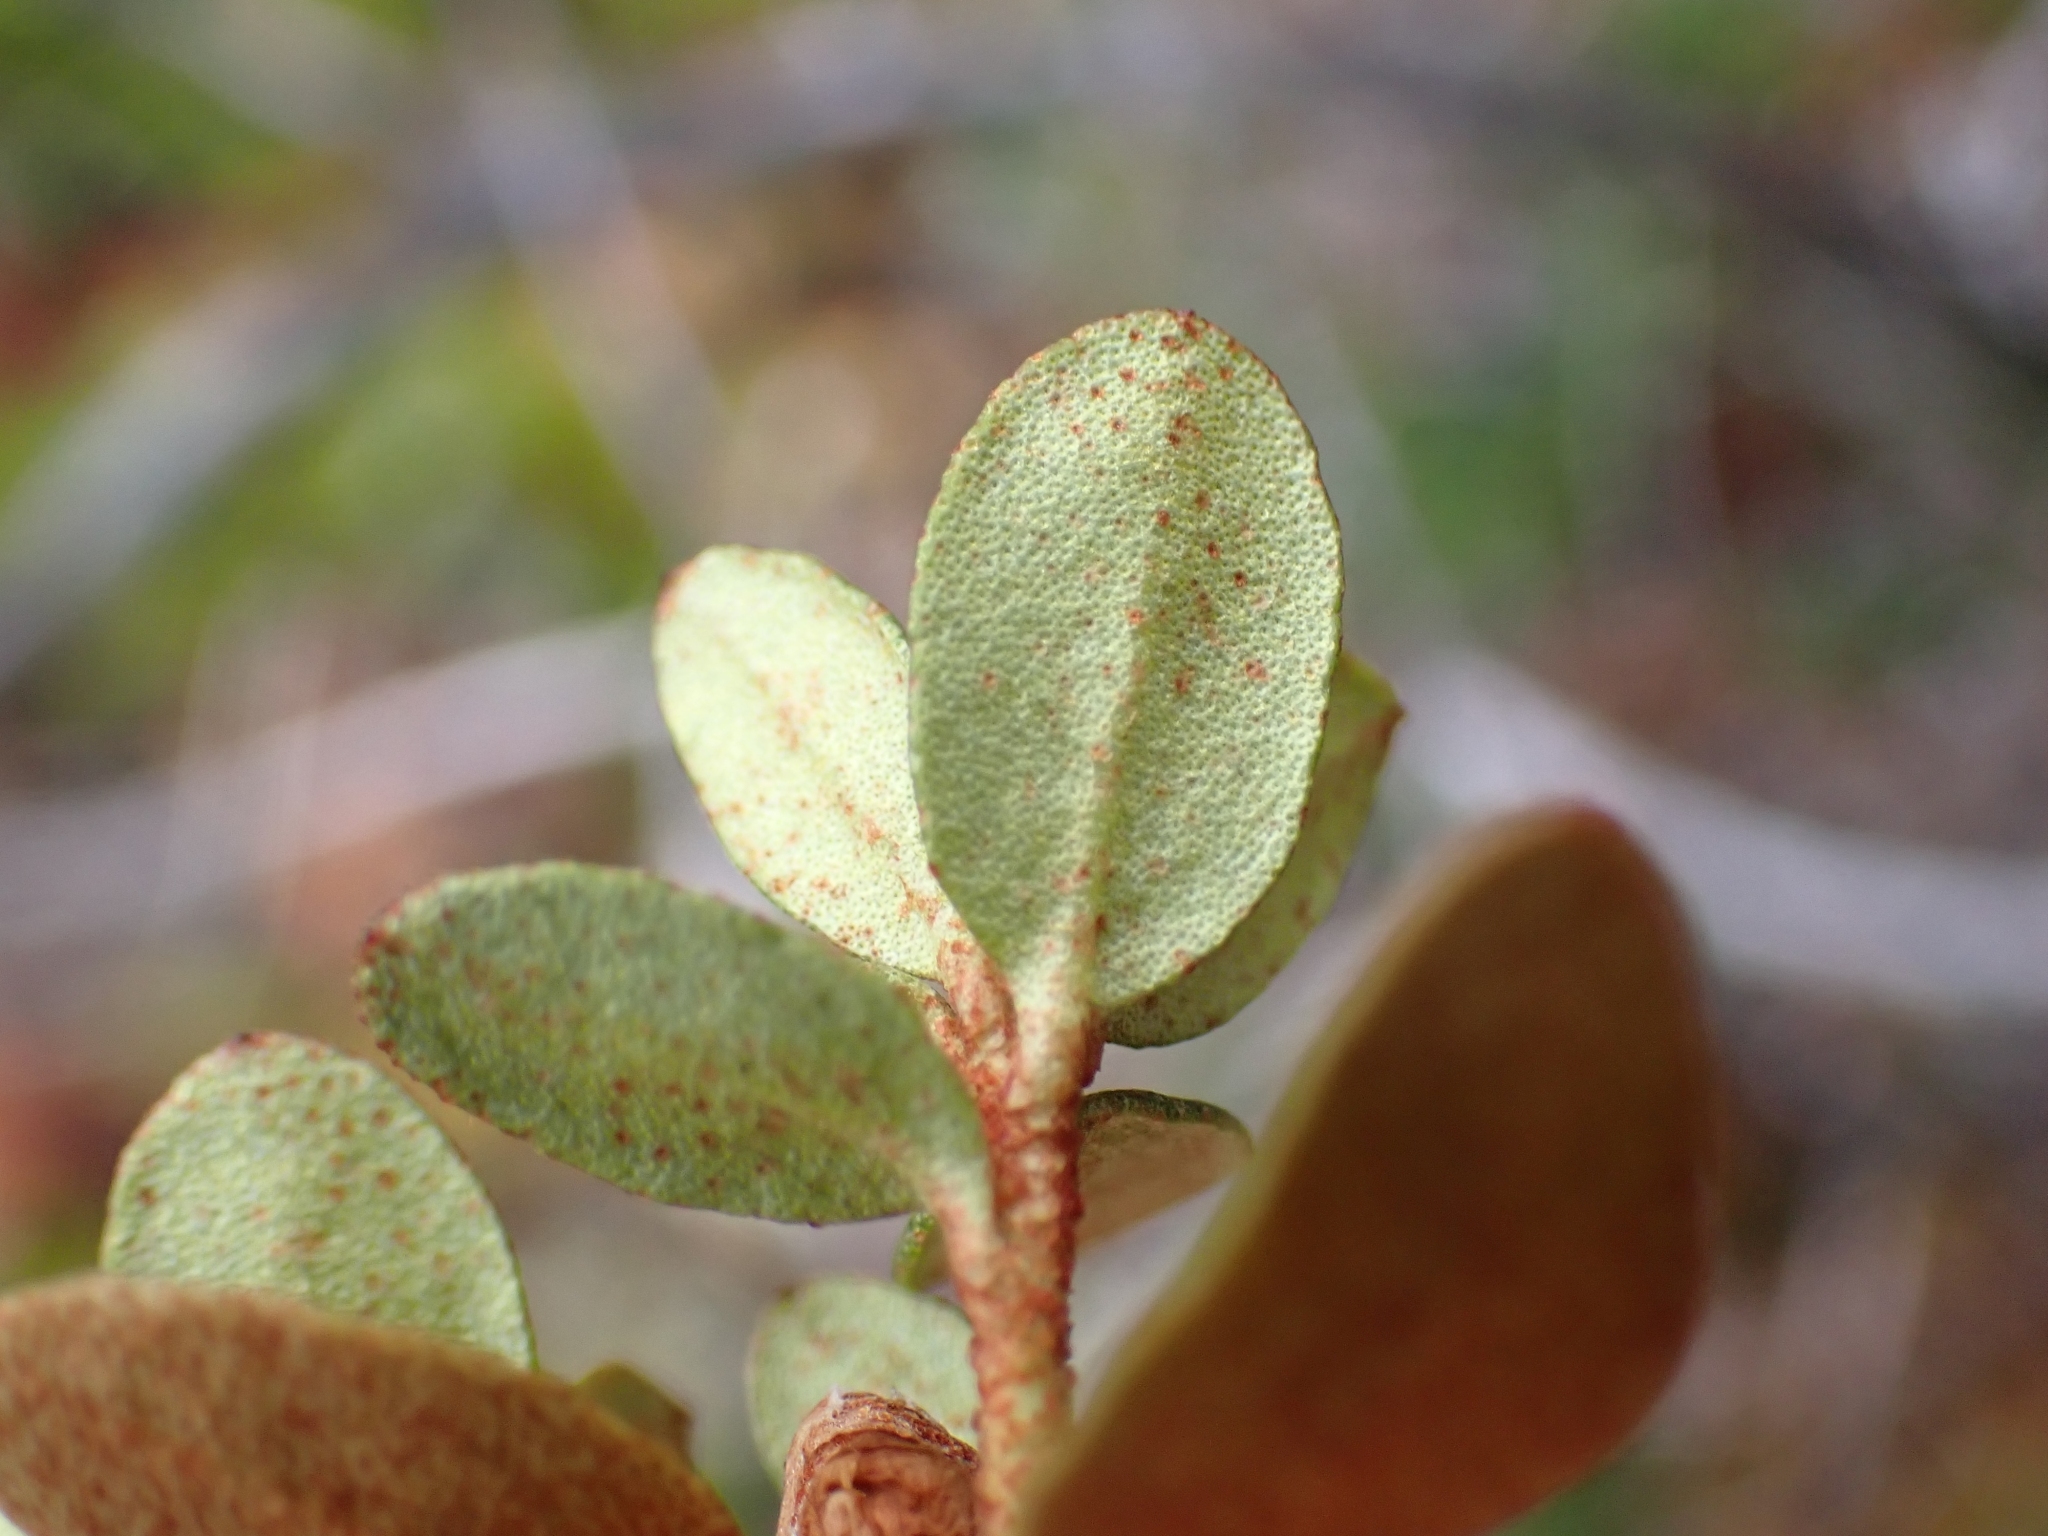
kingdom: Plantae
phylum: Tracheophyta
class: Magnoliopsida
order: Ericales
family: Ericaceae
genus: Rhododendron
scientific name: Rhododendron lapponicum
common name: Lapland rhododendron
